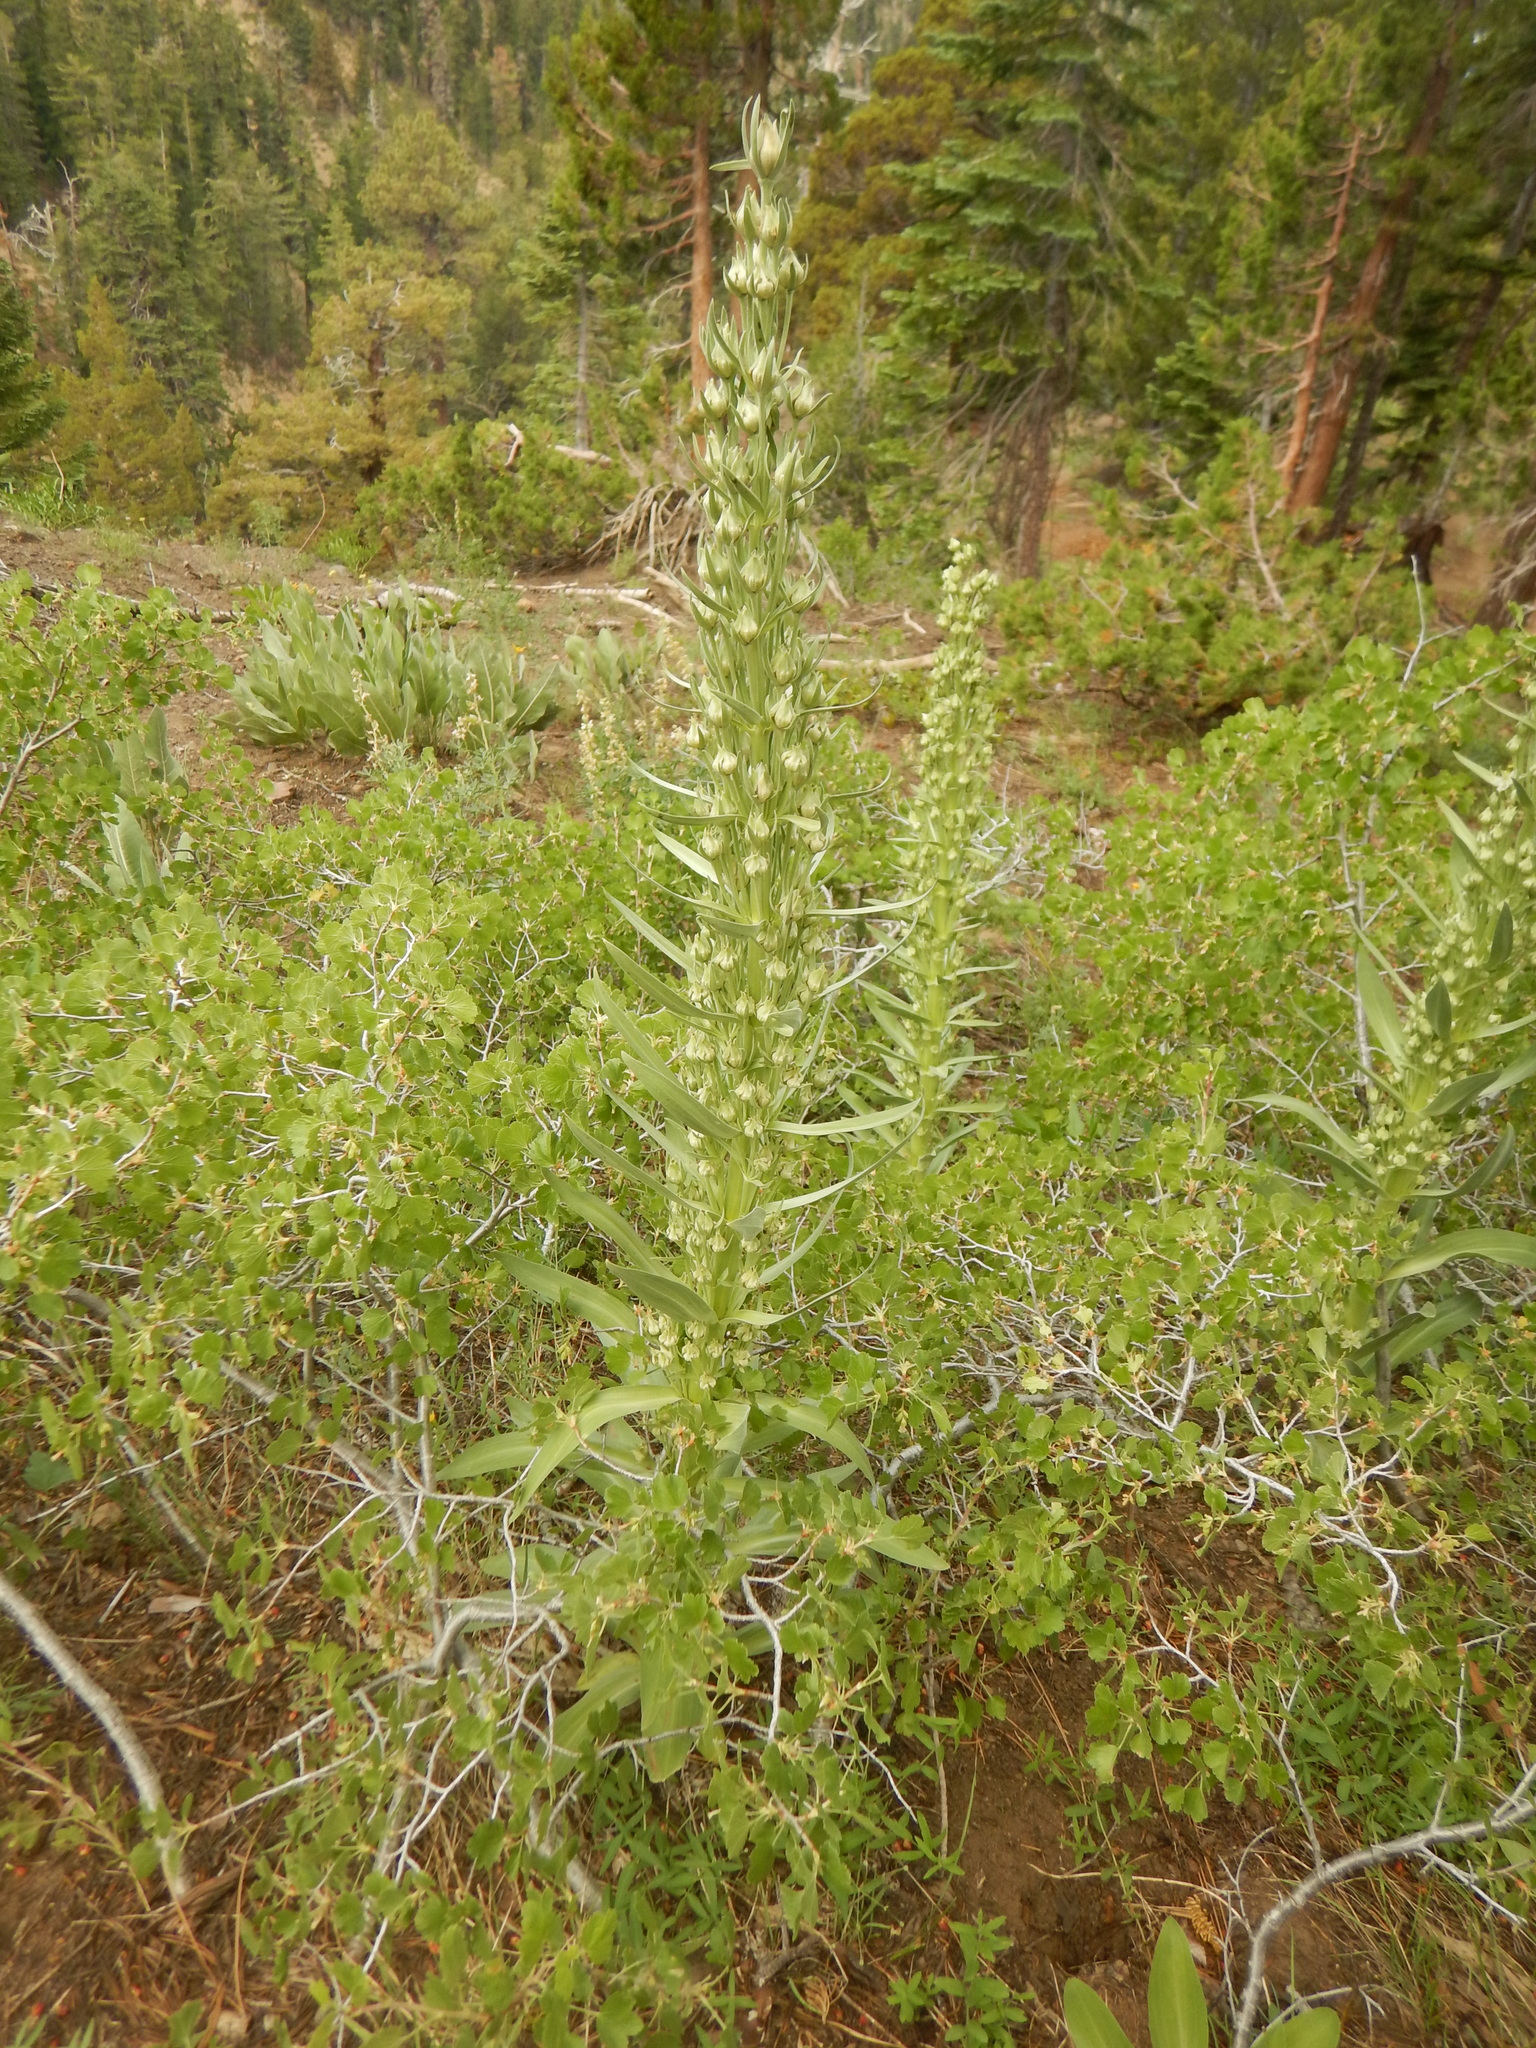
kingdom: Plantae
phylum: Tracheophyta
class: Magnoliopsida
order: Gentianales
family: Gentianaceae
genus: Frasera
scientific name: Frasera speciosa
